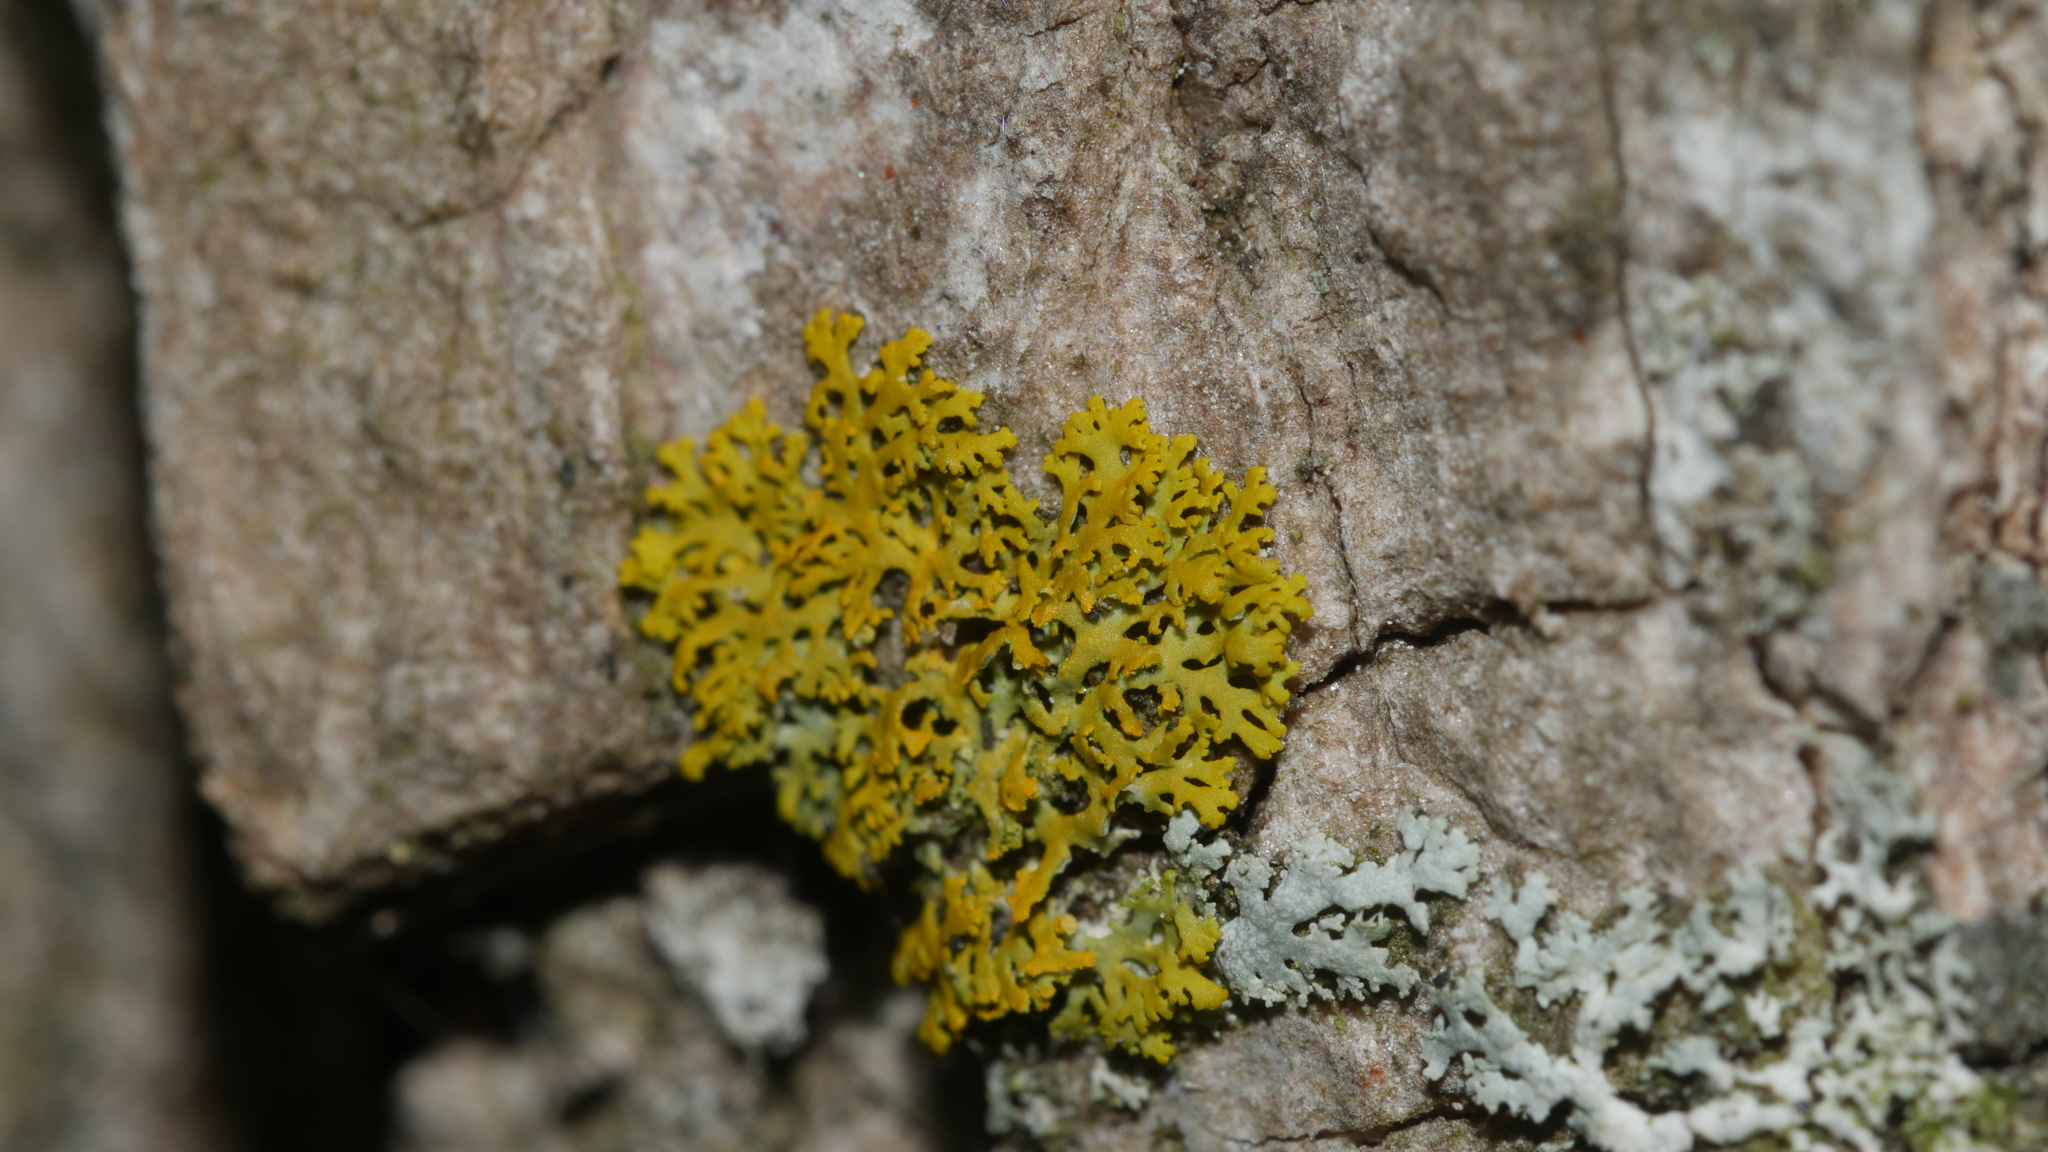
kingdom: Fungi
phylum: Ascomycota
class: Candelariomycetes
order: Candelariales
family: Candelariaceae
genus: Candelaria
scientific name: Candelaria concolor
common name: Candleflame lichen
